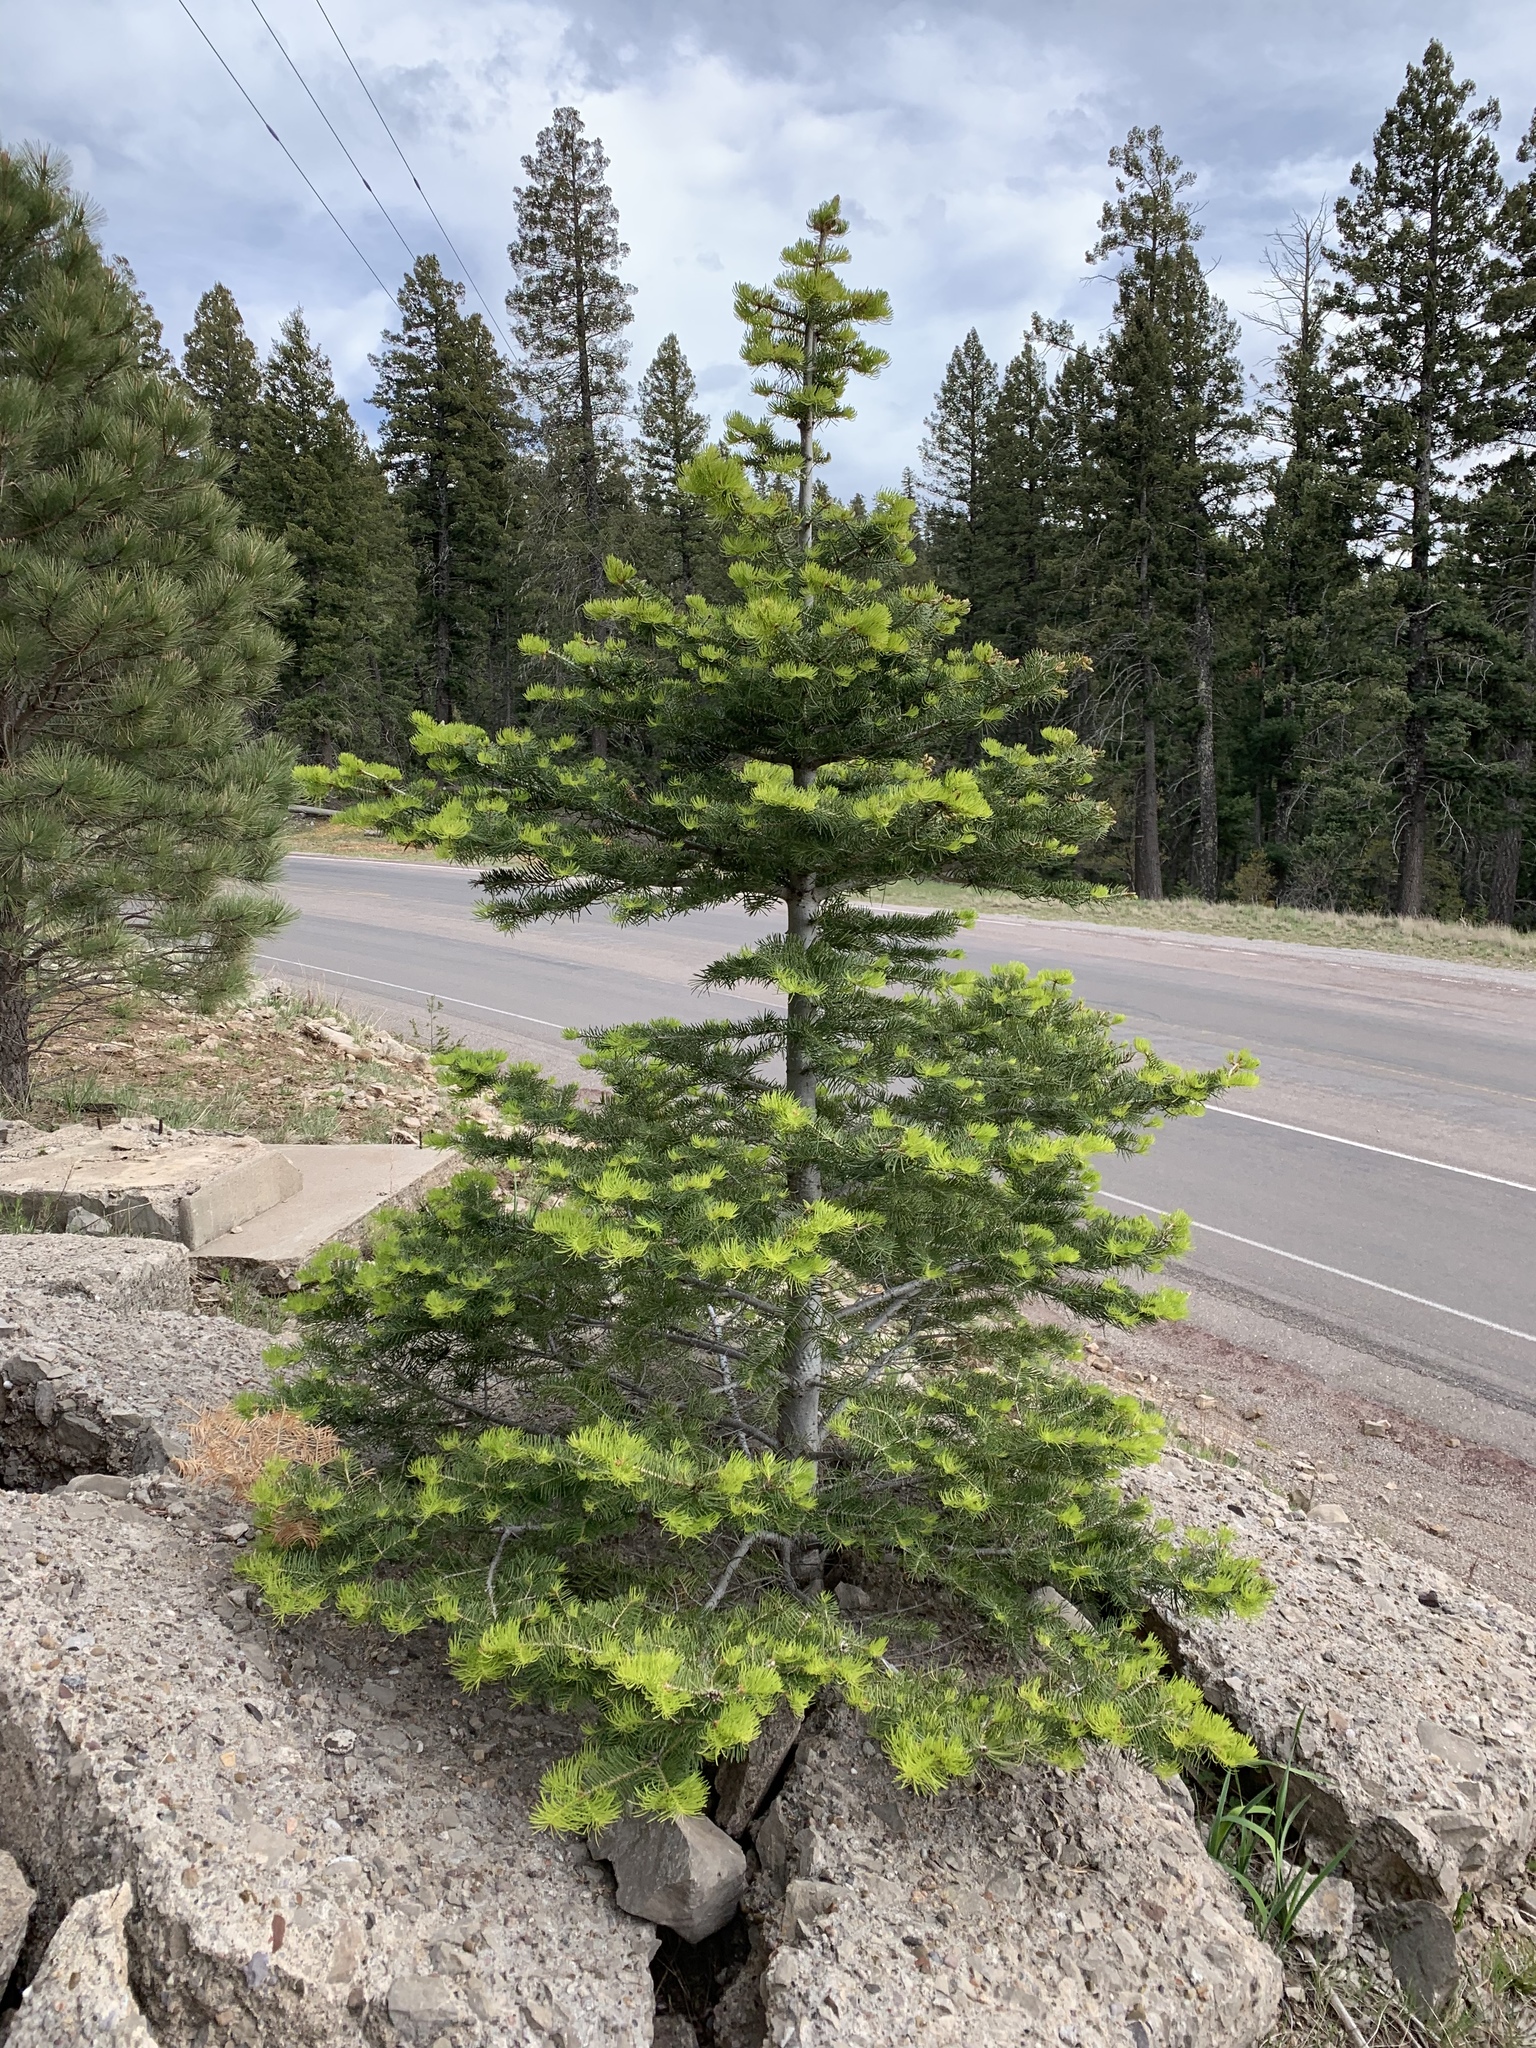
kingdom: Plantae
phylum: Tracheophyta
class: Pinopsida
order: Pinales
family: Pinaceae
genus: Abies
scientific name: Abies concolor
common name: Colorado fir
